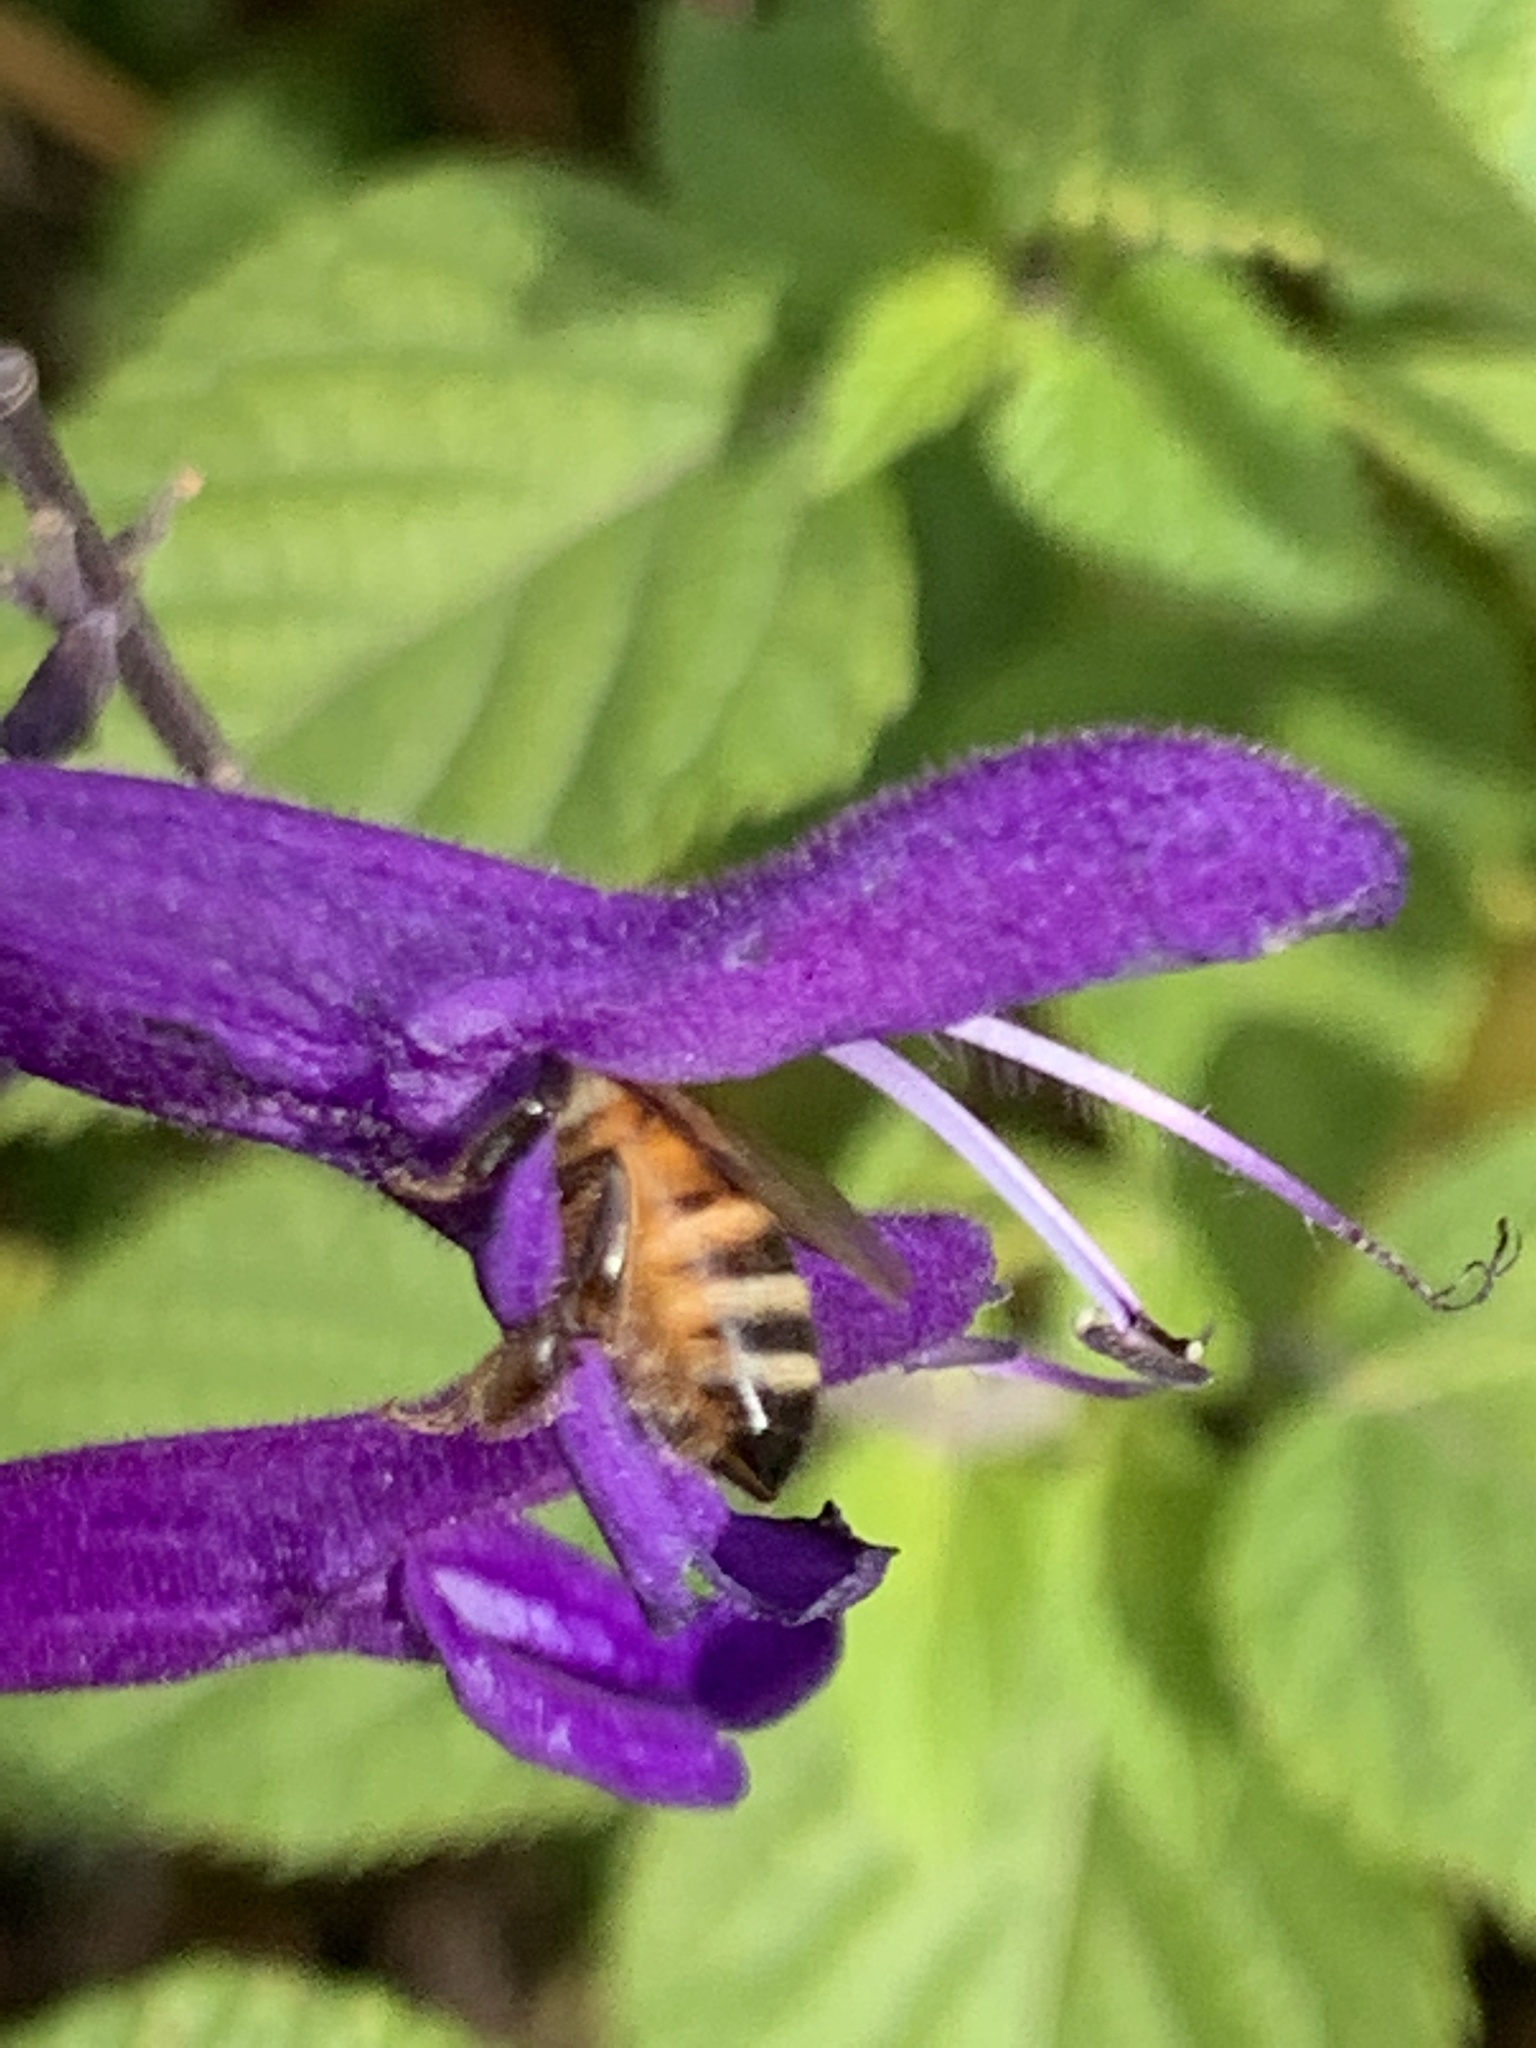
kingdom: Animalia
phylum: Arthropoda
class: Insecta
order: Hymenoptera
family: Apidae
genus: Apis
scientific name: Apis mellifera
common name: Honey bee
